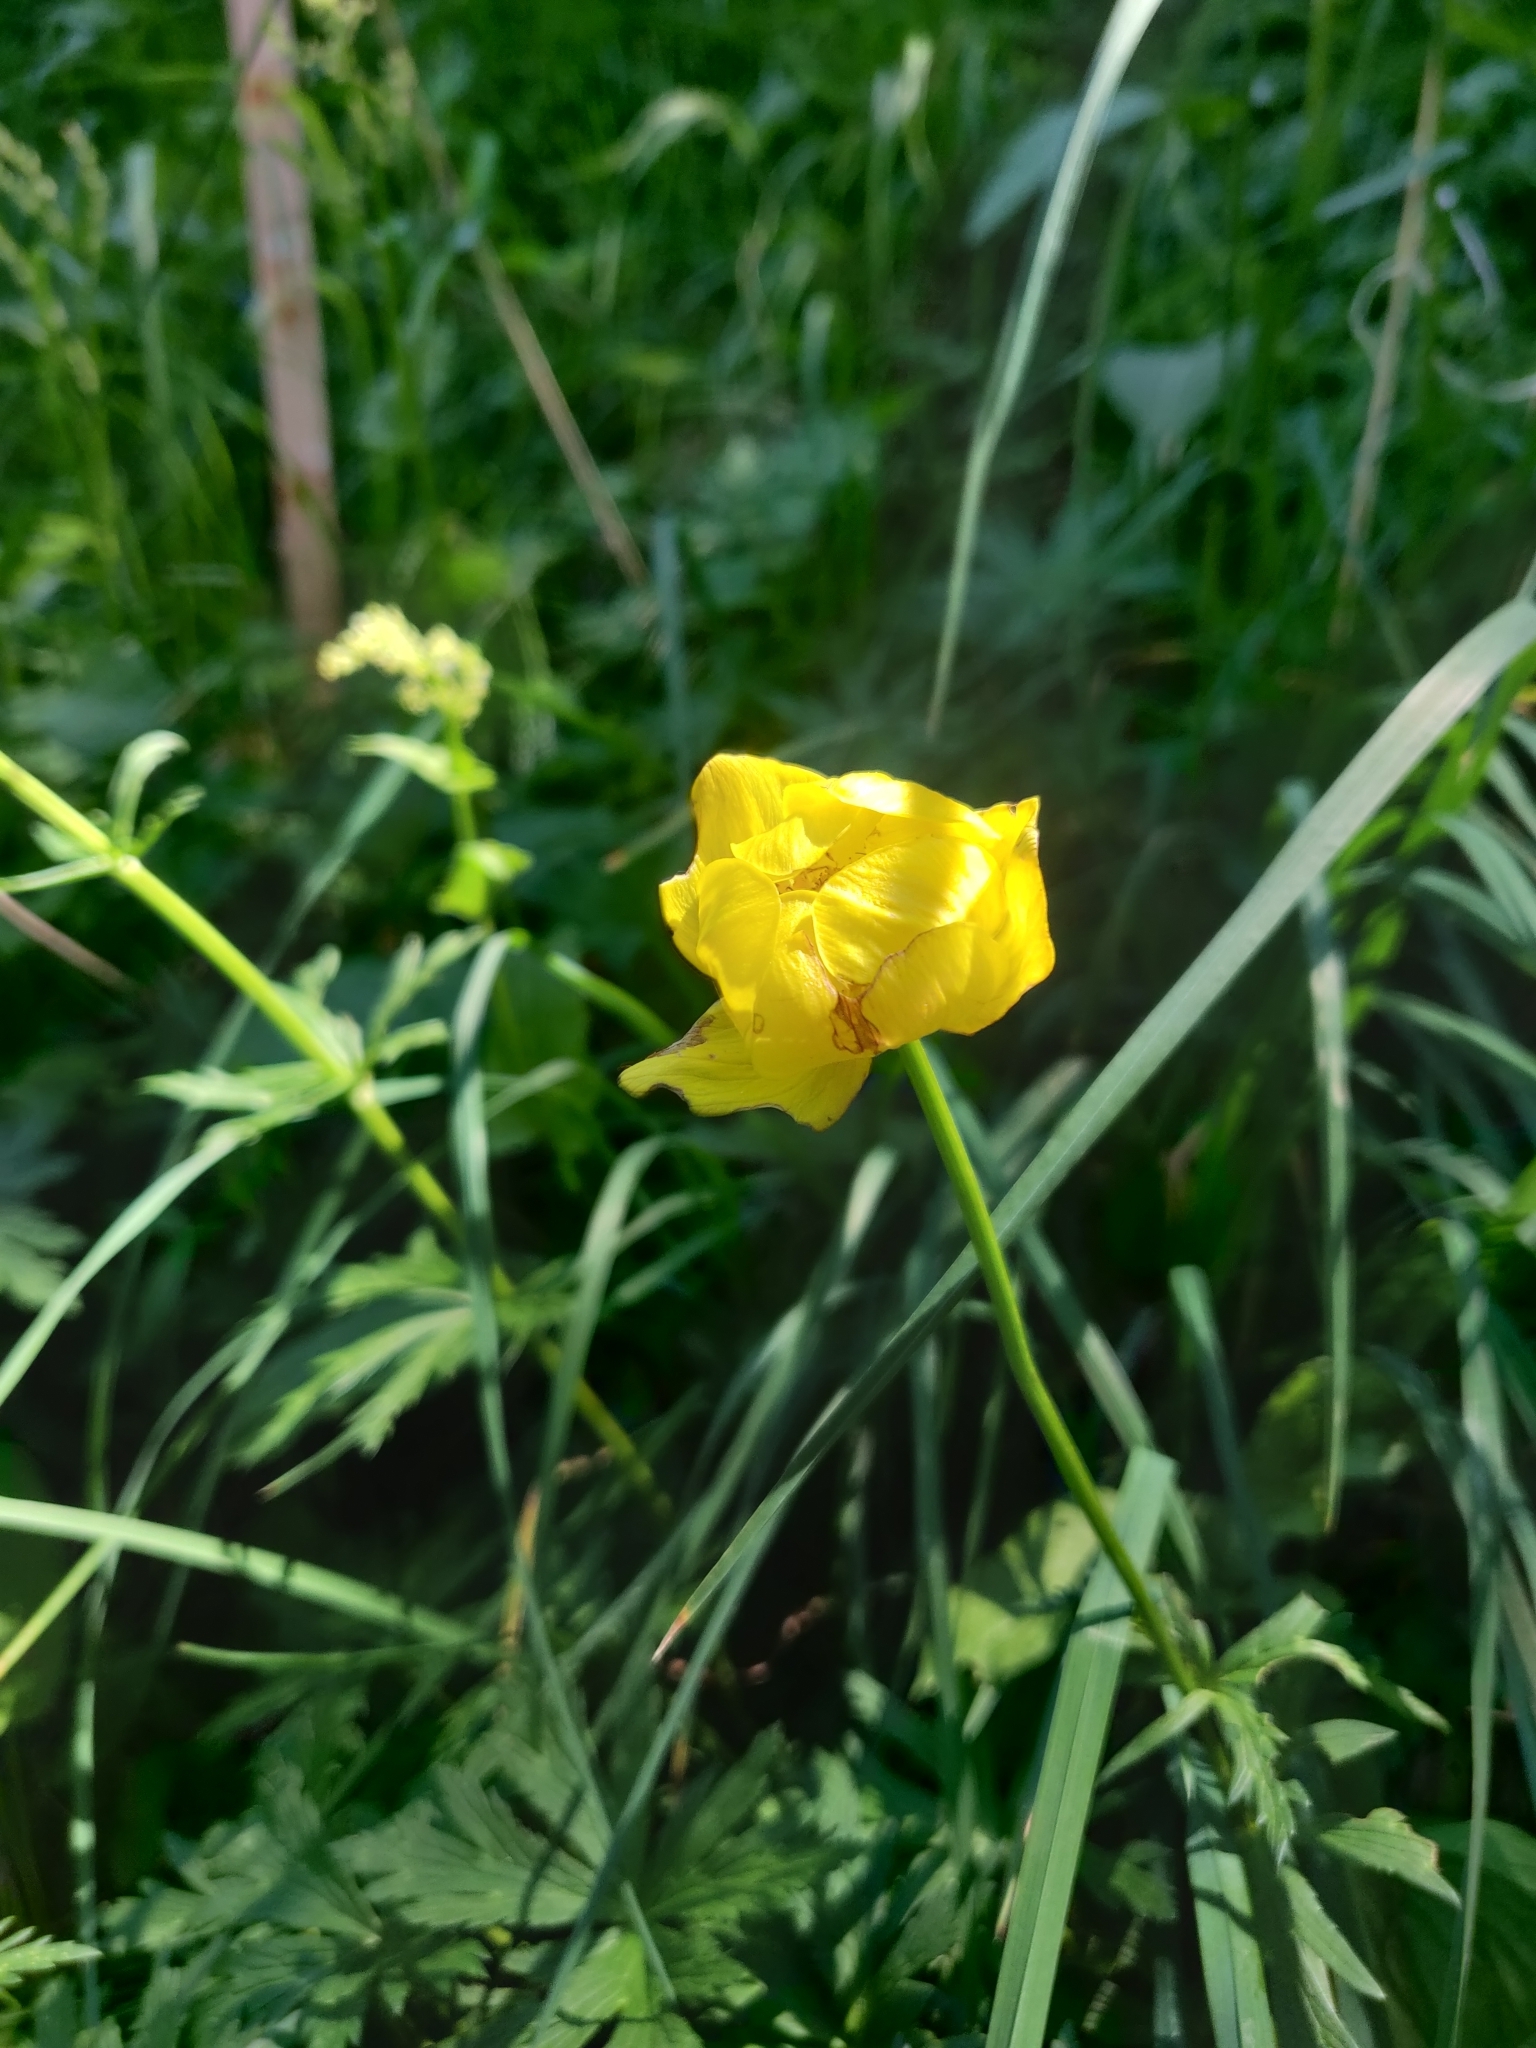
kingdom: Plantae
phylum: Tracheophyta
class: Magnoliopsida
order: Ranunculales
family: Ranunculaceae
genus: Trollius
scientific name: Trollius europaeus
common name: European globeflower
